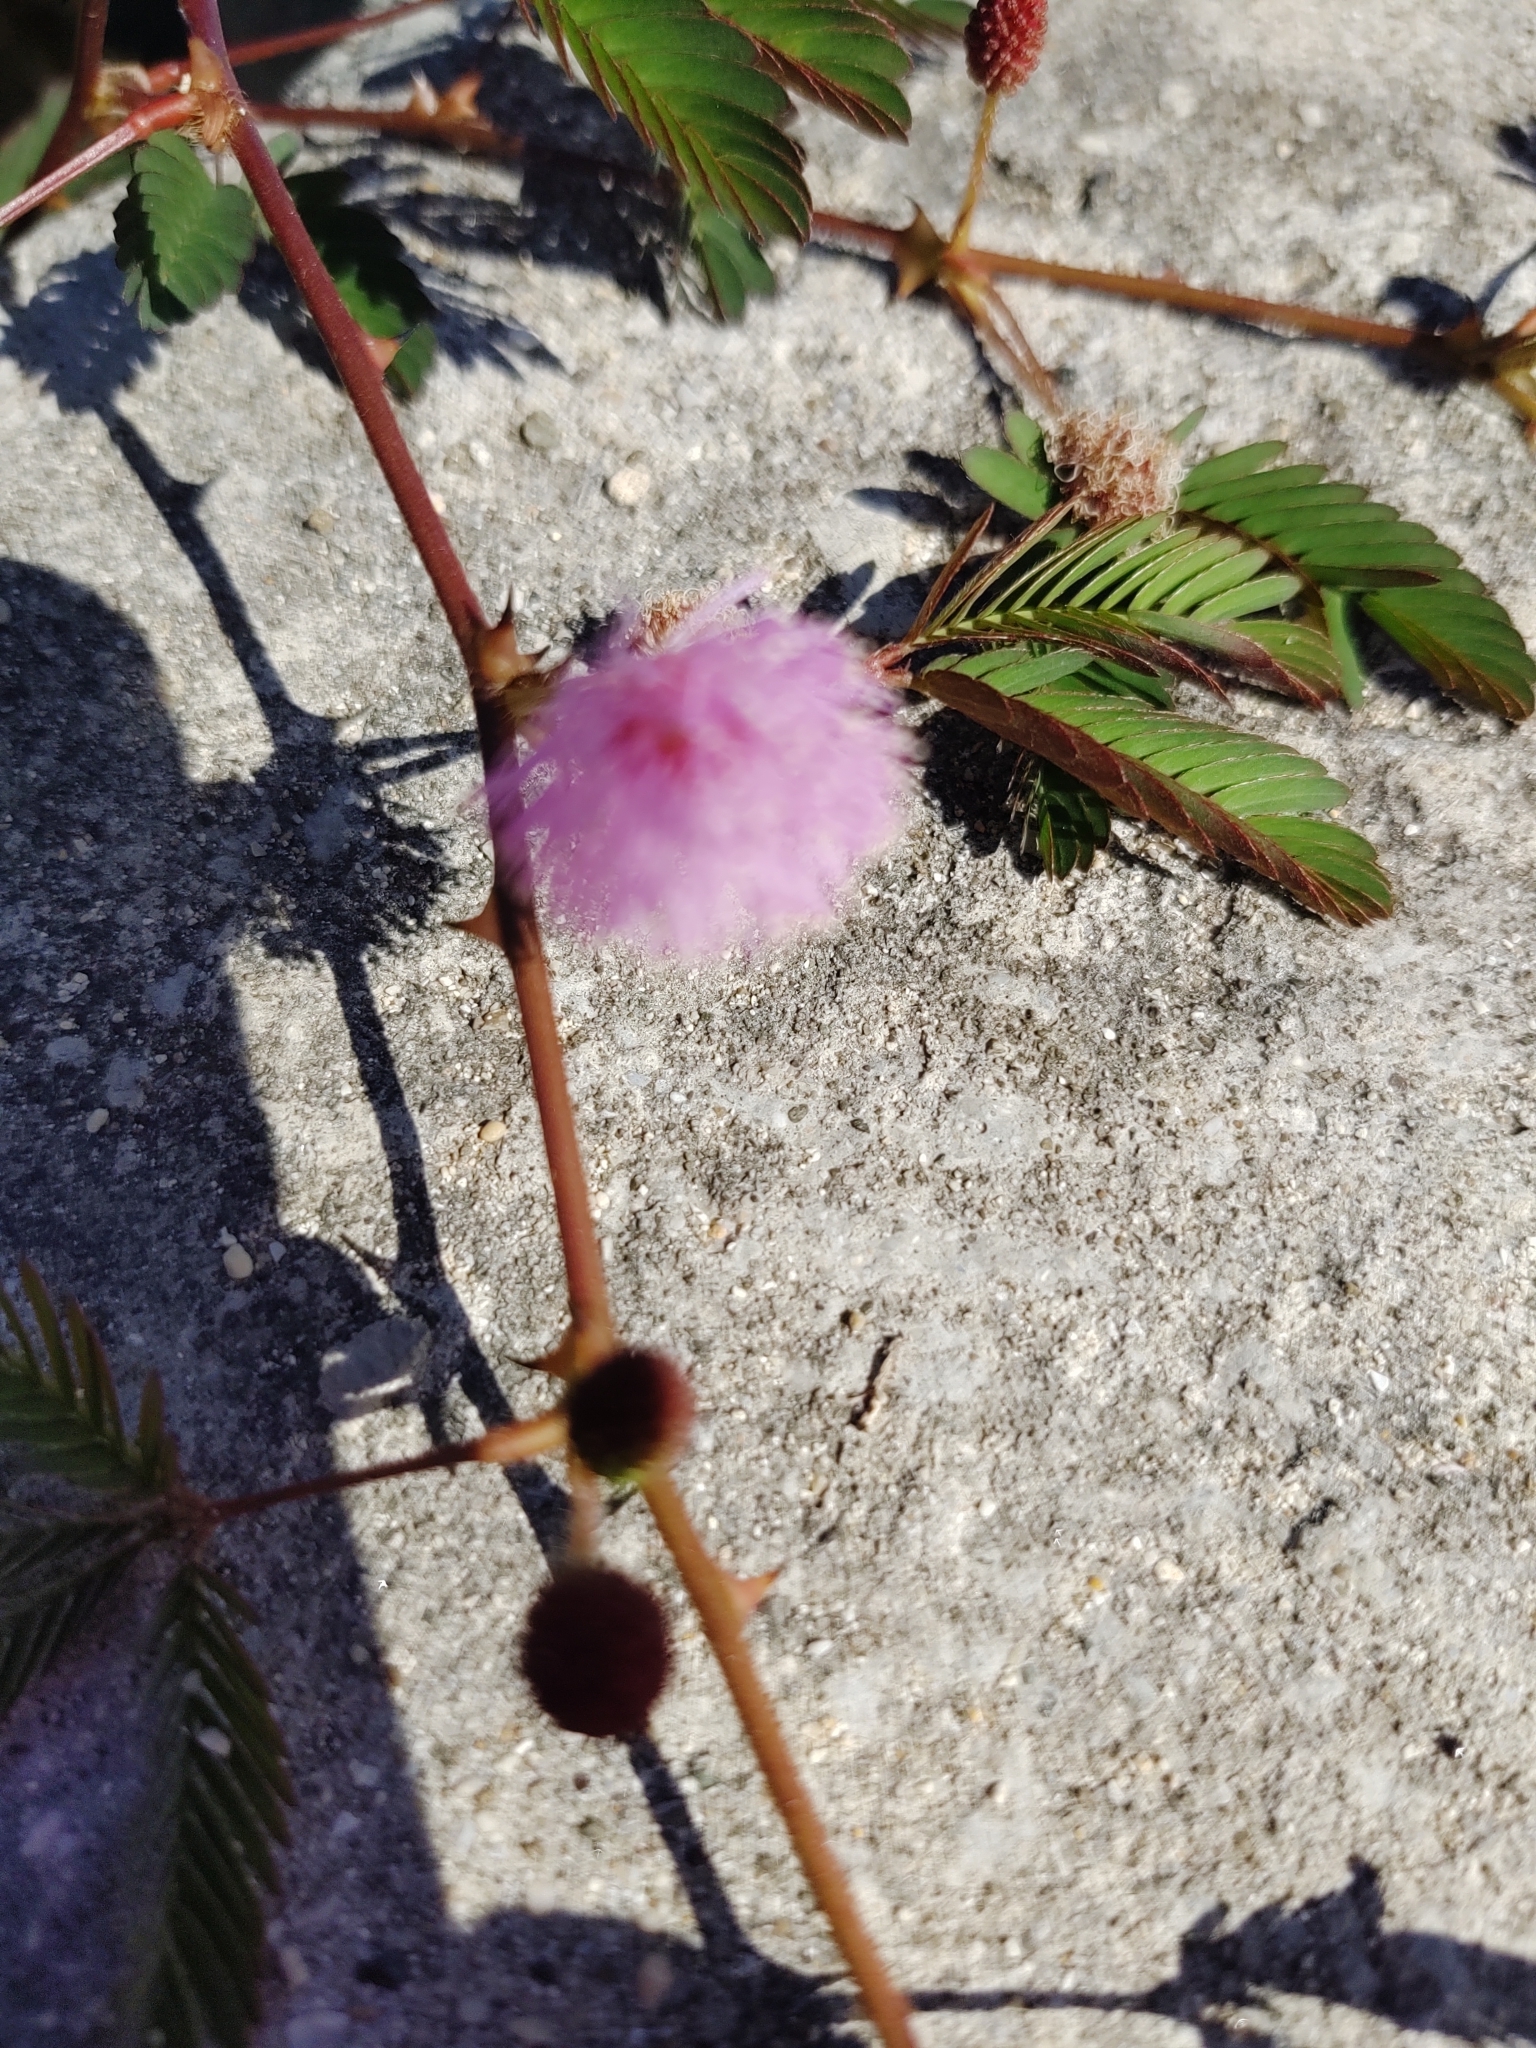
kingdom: Plantae
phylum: Tracheophyta
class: Magnoliopsida
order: Fabales
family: Fabaceae
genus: Mimosa
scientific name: Mimosa pudica
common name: Sensitive plant
